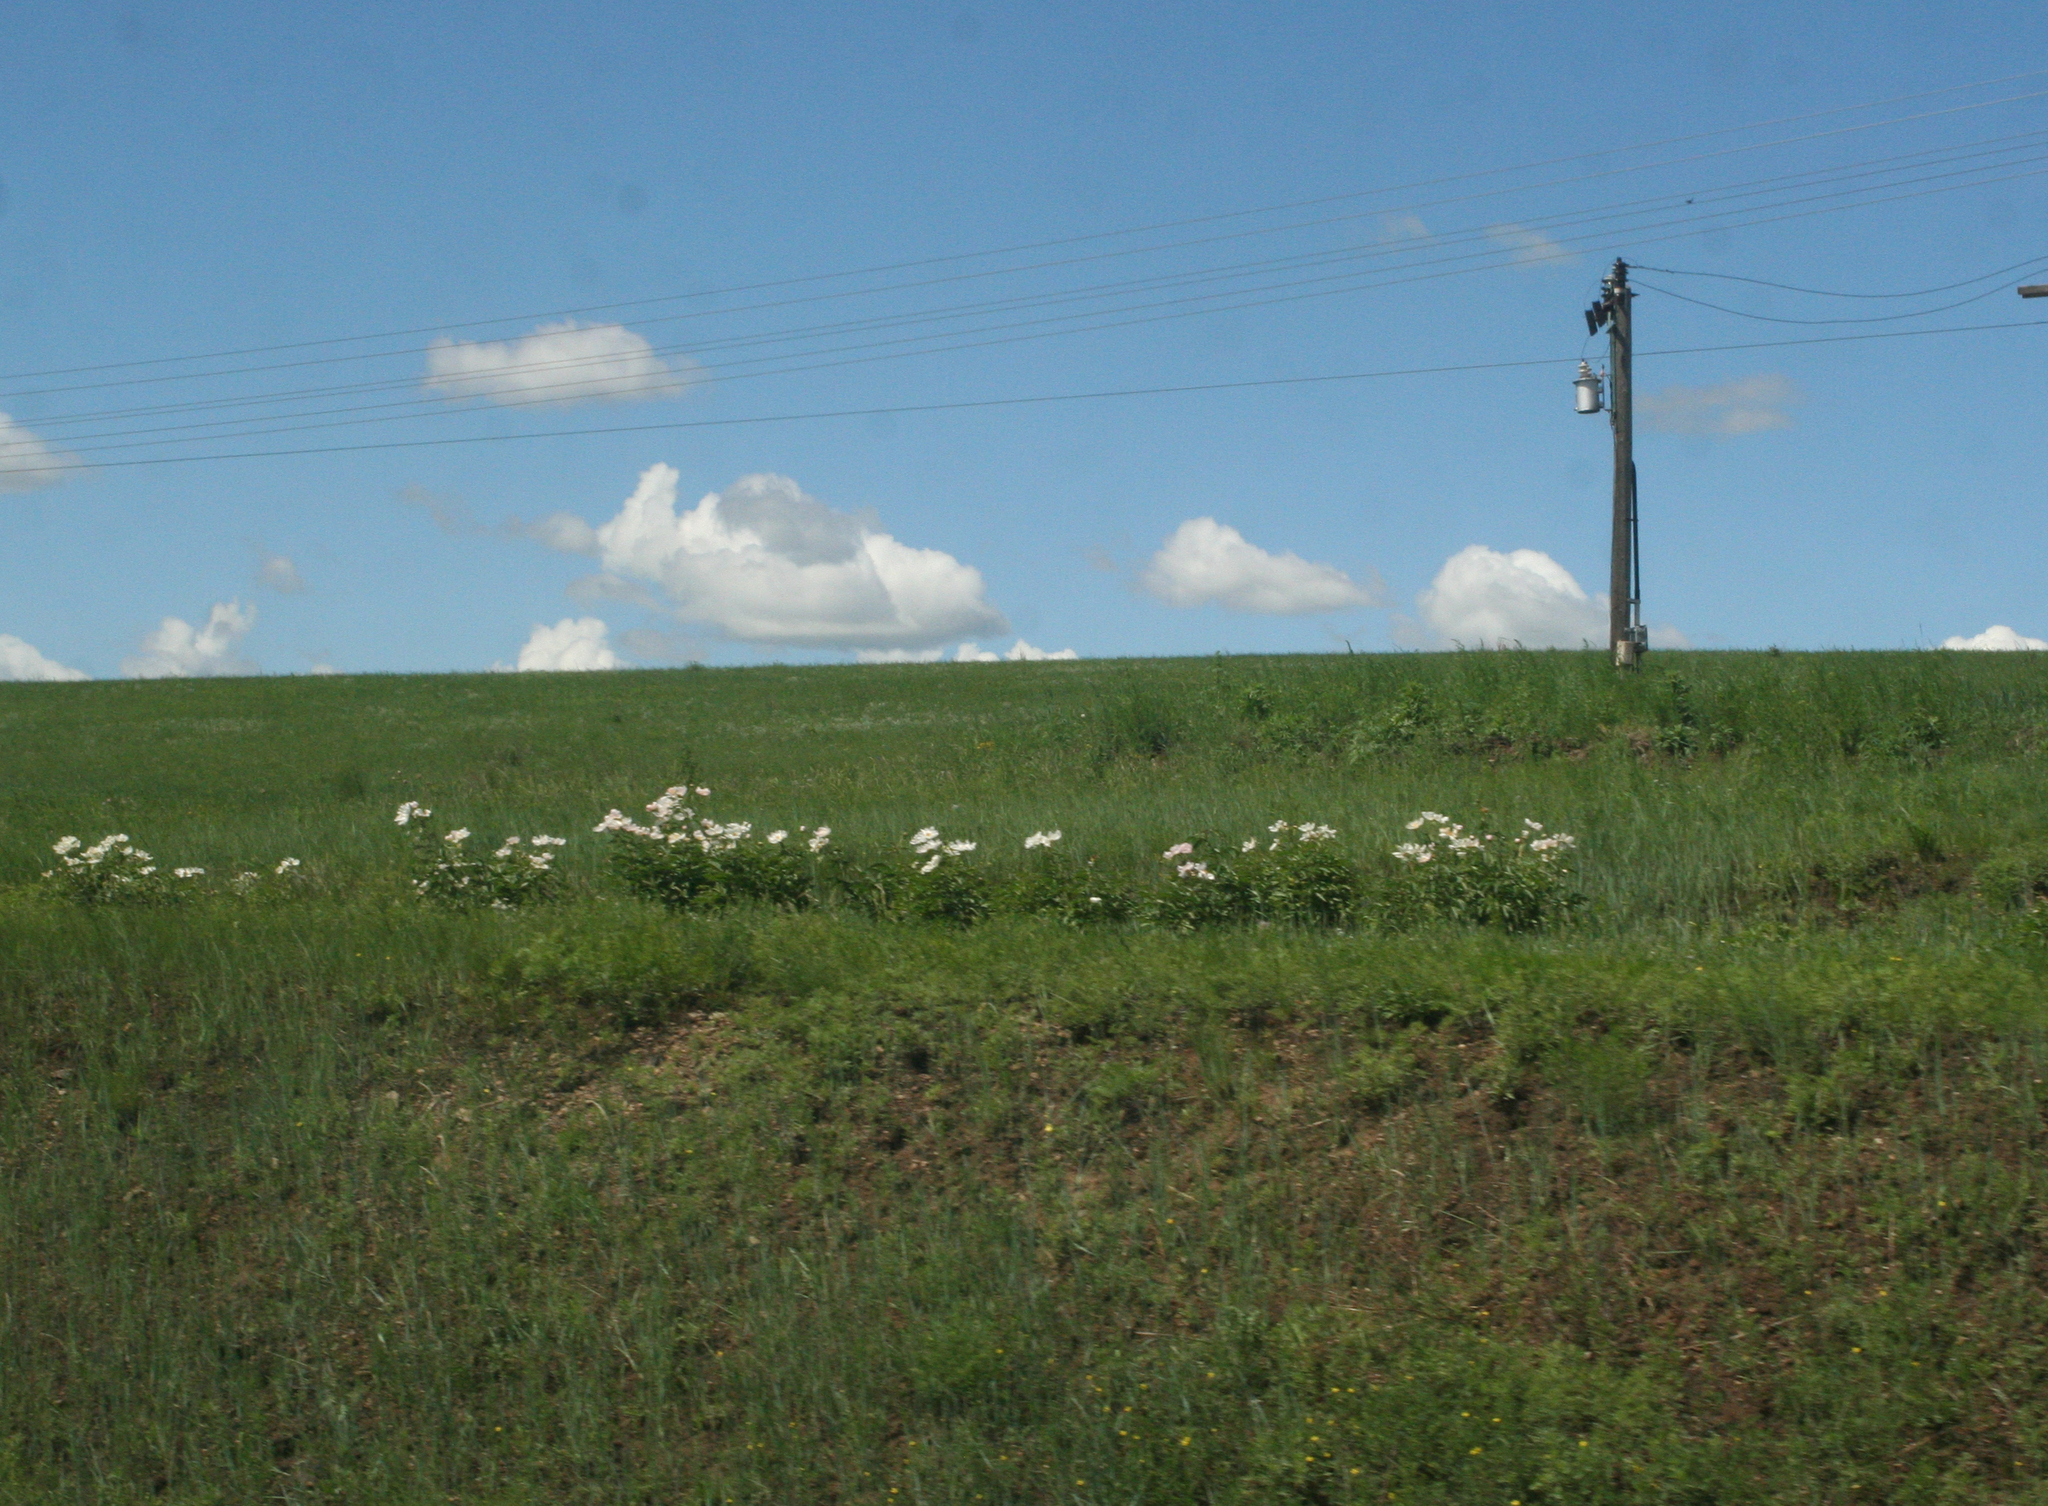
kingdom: Plantae
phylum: Tracheophyta
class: Magnoliopsida
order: Saxifragales
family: Paeoniaceae
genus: Paeonia
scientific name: Paeonia lactiflora
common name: Chinese peony
